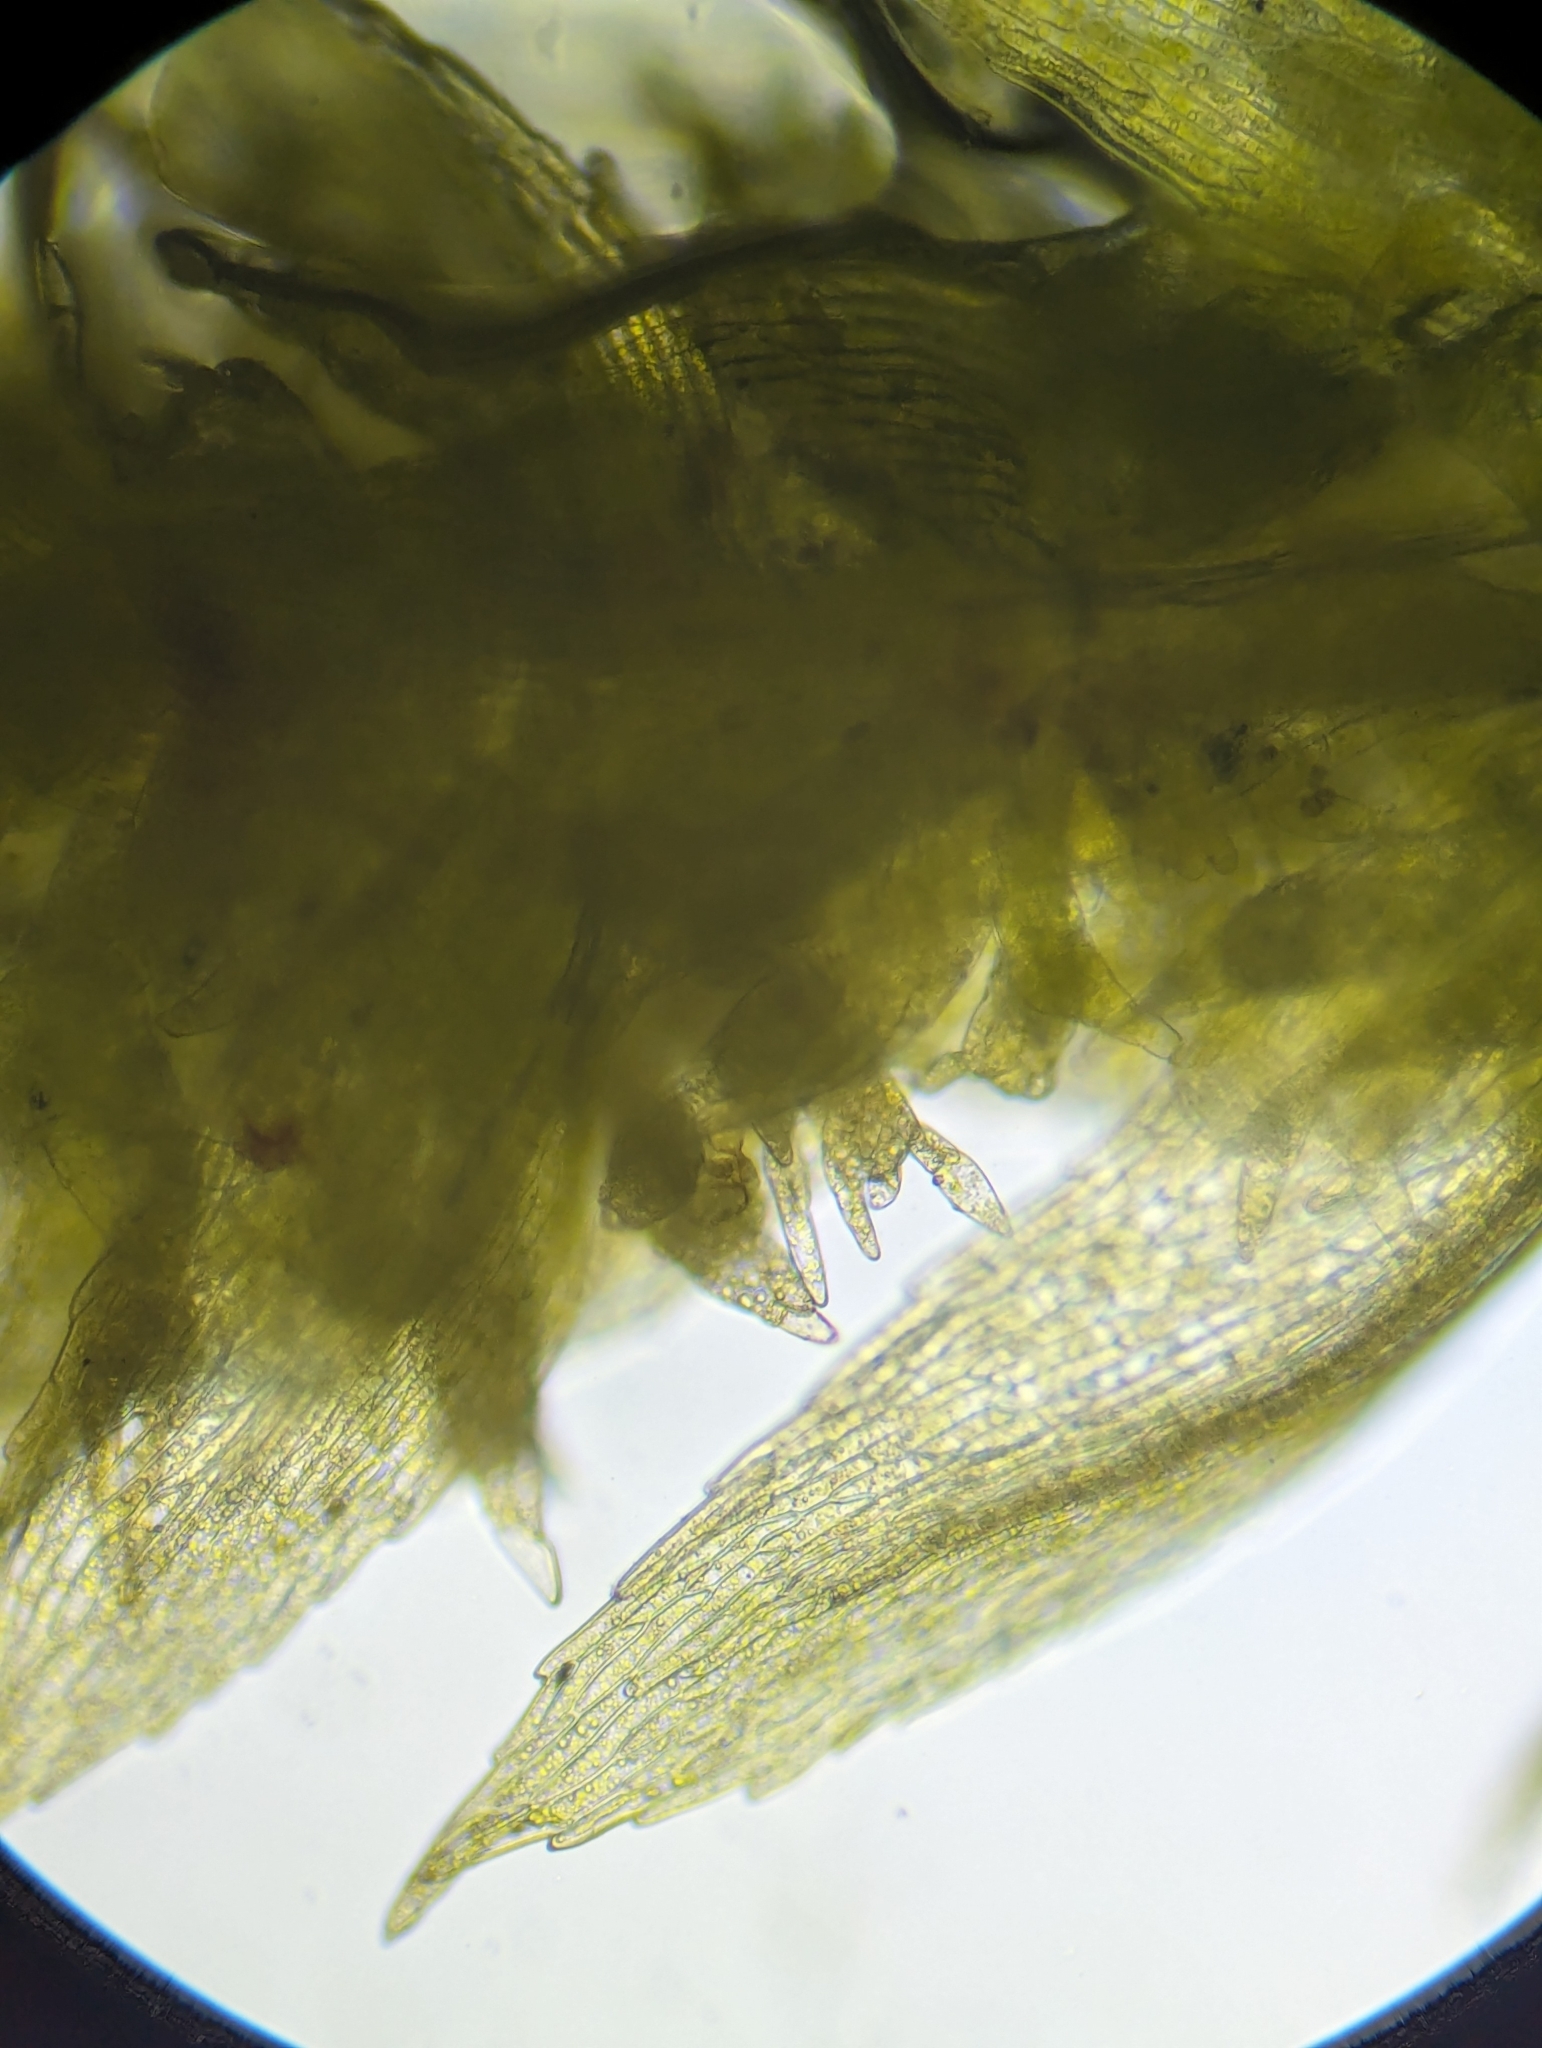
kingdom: Plantae
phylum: Bryophyta
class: Bryopsida
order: Bryales
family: Mniaceae
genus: Pohlia
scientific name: Pohlia annotina
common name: Pale-fruited nodding moss
